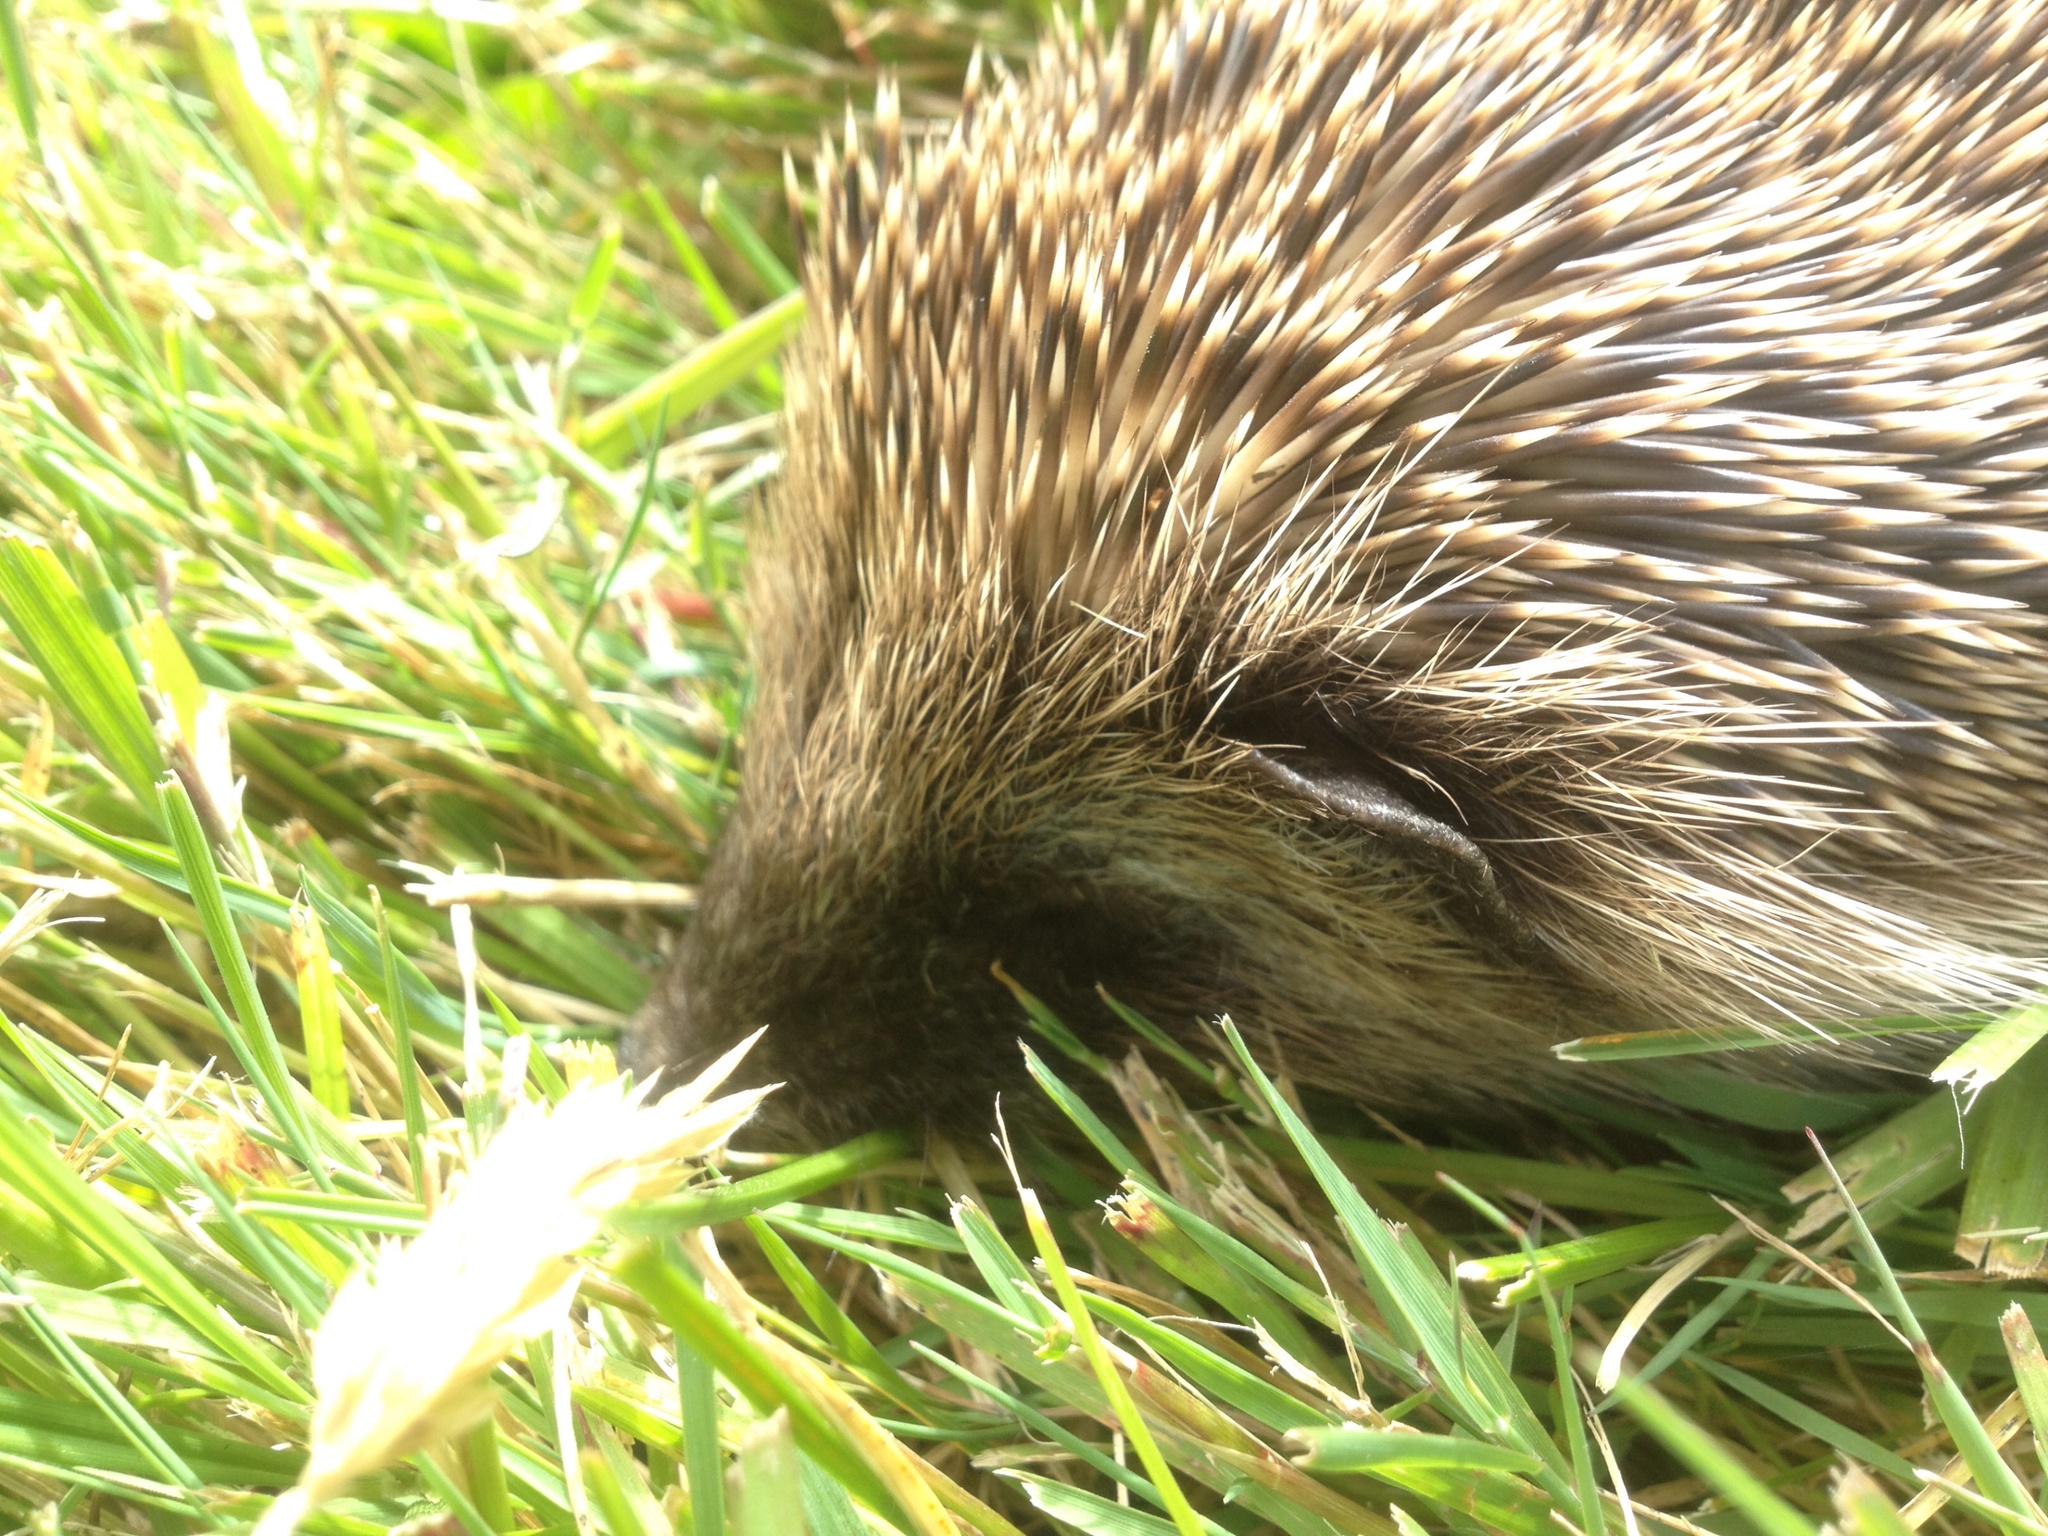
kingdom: Animalia
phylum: Chordata
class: Mammalia
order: Erinaceomorpha
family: Erinaceidae
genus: Erinaceus
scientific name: Erinaceus europaeus
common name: West european hedgehog
